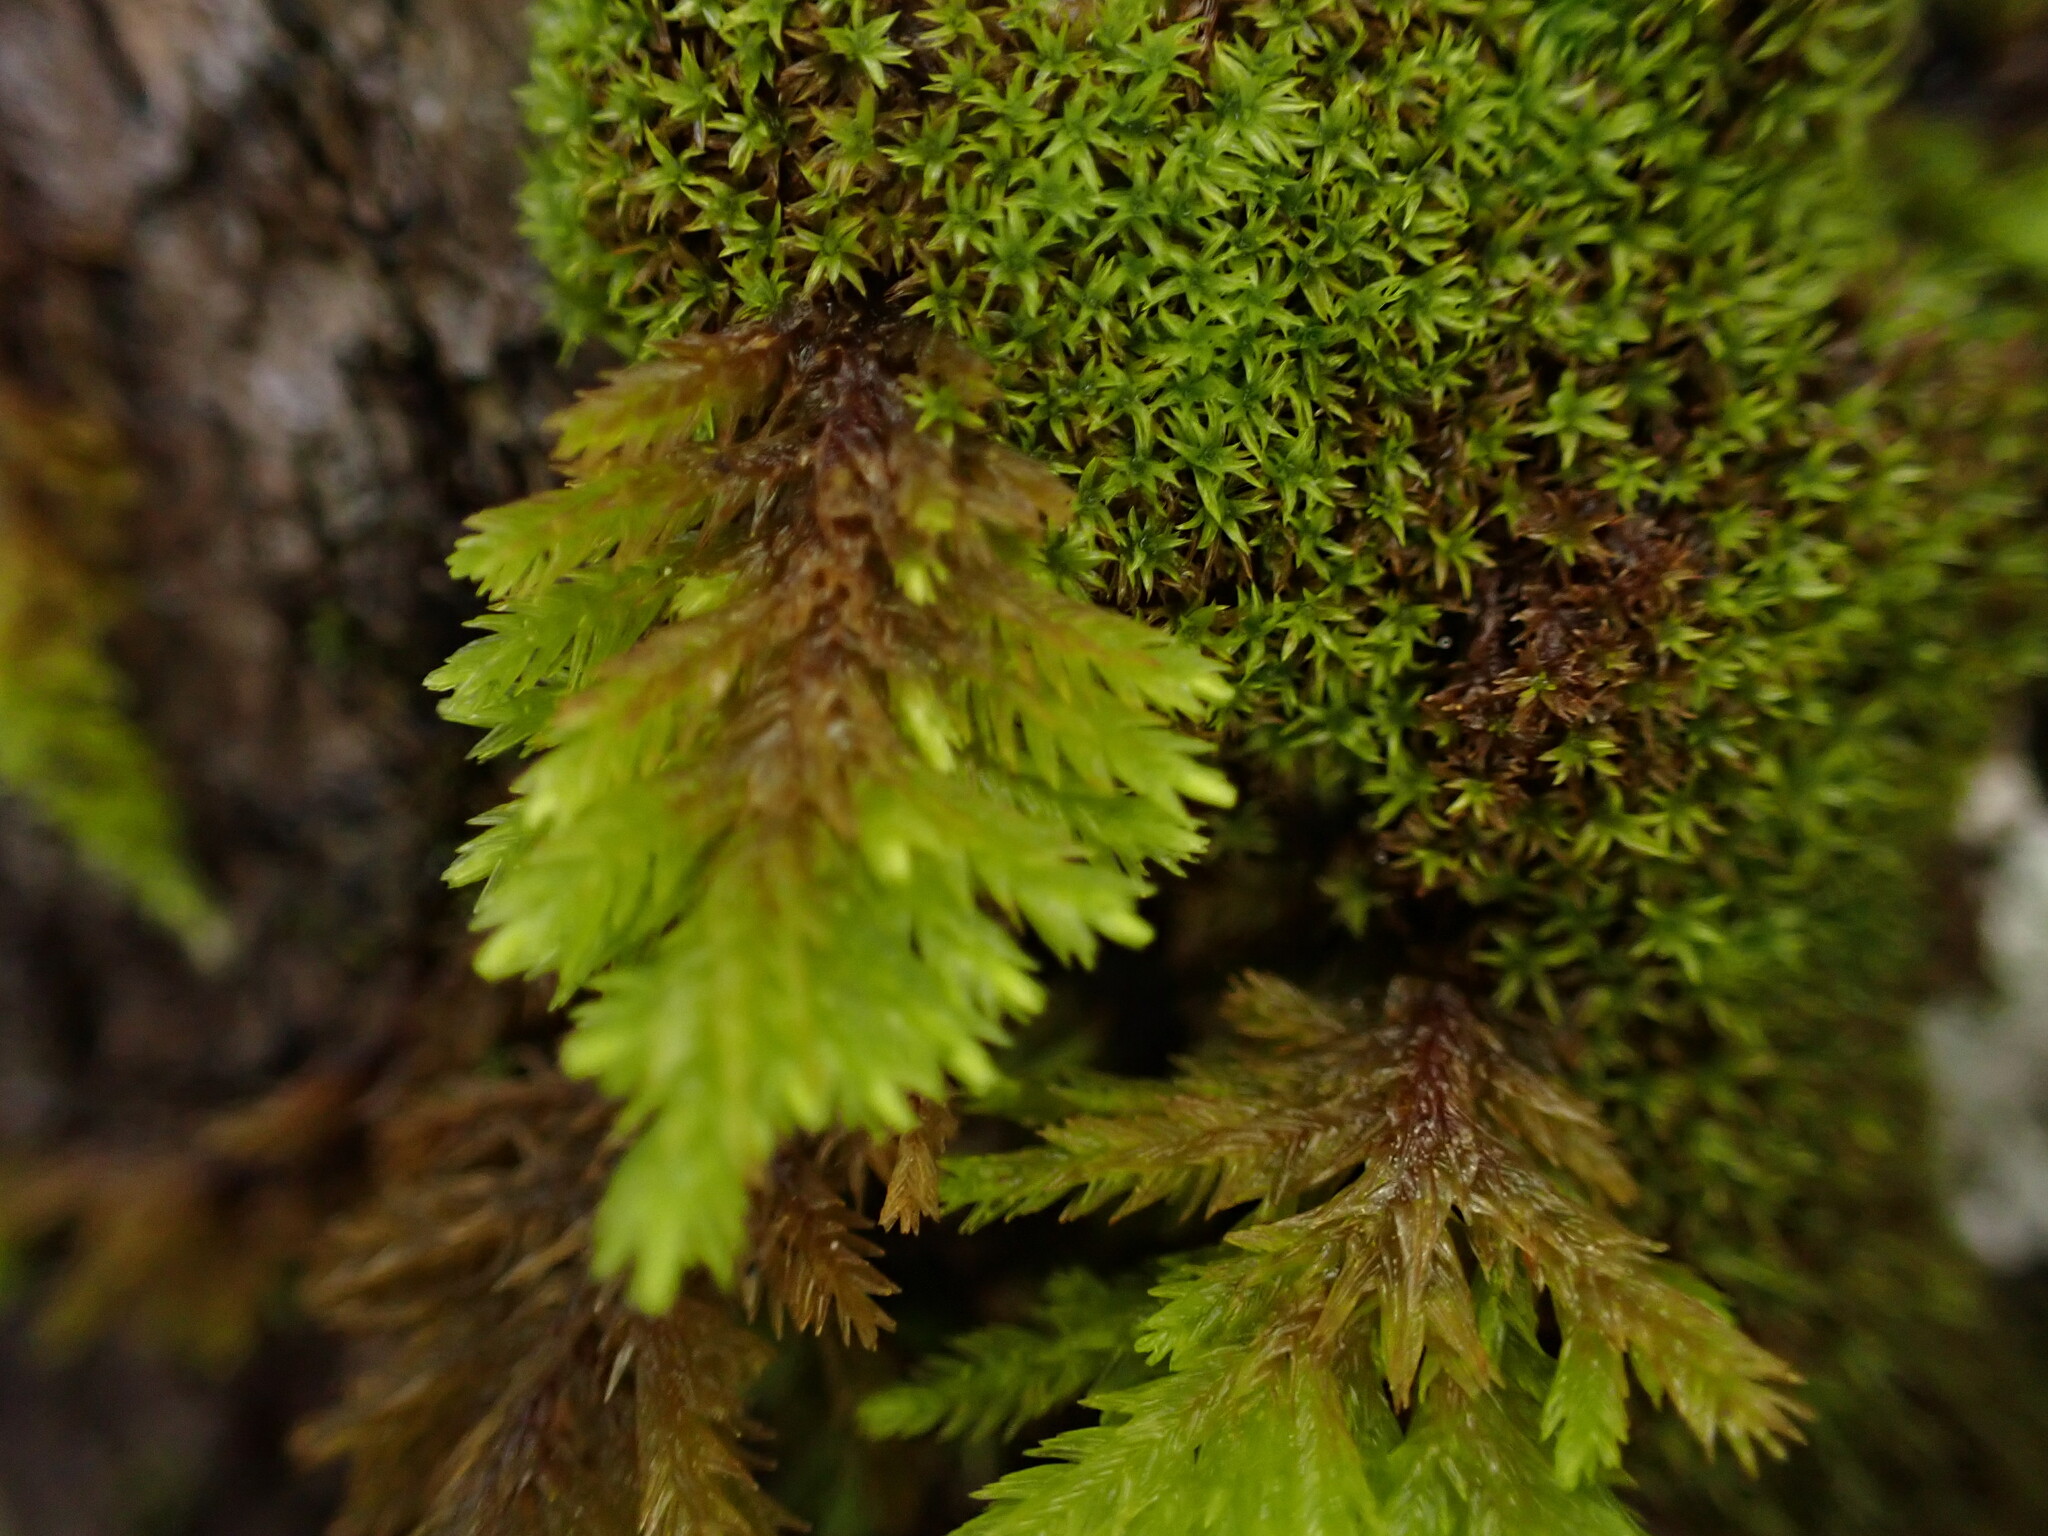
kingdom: Plantae
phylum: Bryophyta
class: Bryopsida
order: Hypnales
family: Cryphaeaceae
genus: Dendroalsia
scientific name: Dendroalsia abietina
